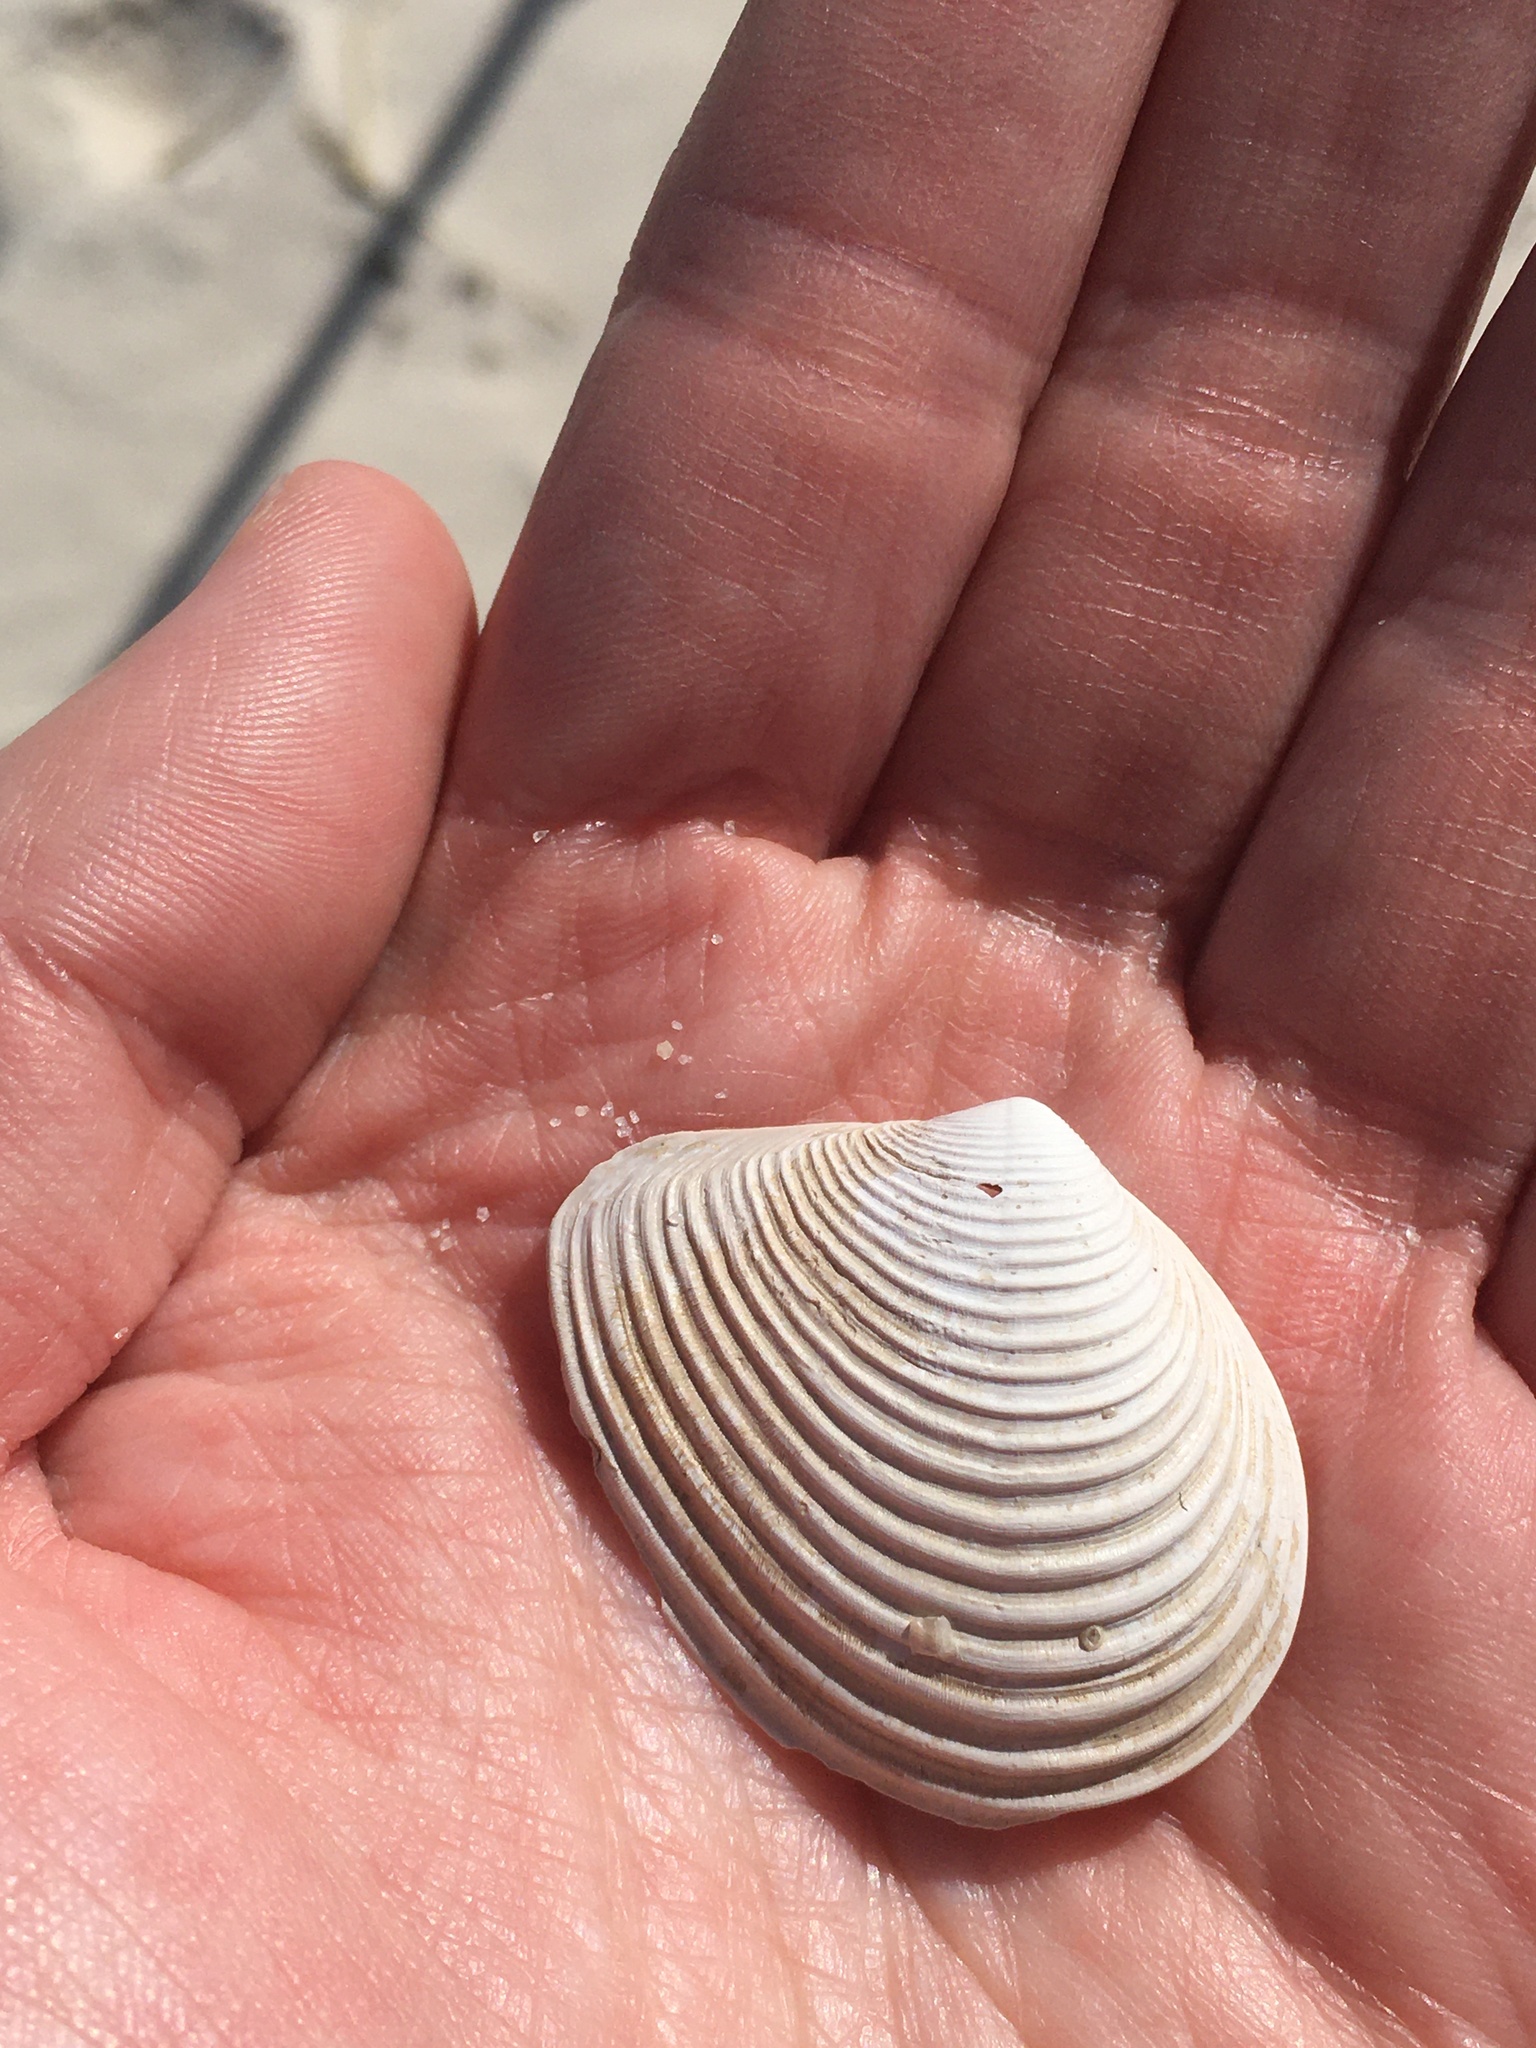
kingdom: Animalia
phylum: Mollusca
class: Bivalvia
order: Venerida
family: Anatinellidae
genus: Raeta
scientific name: Raeta plicatella
